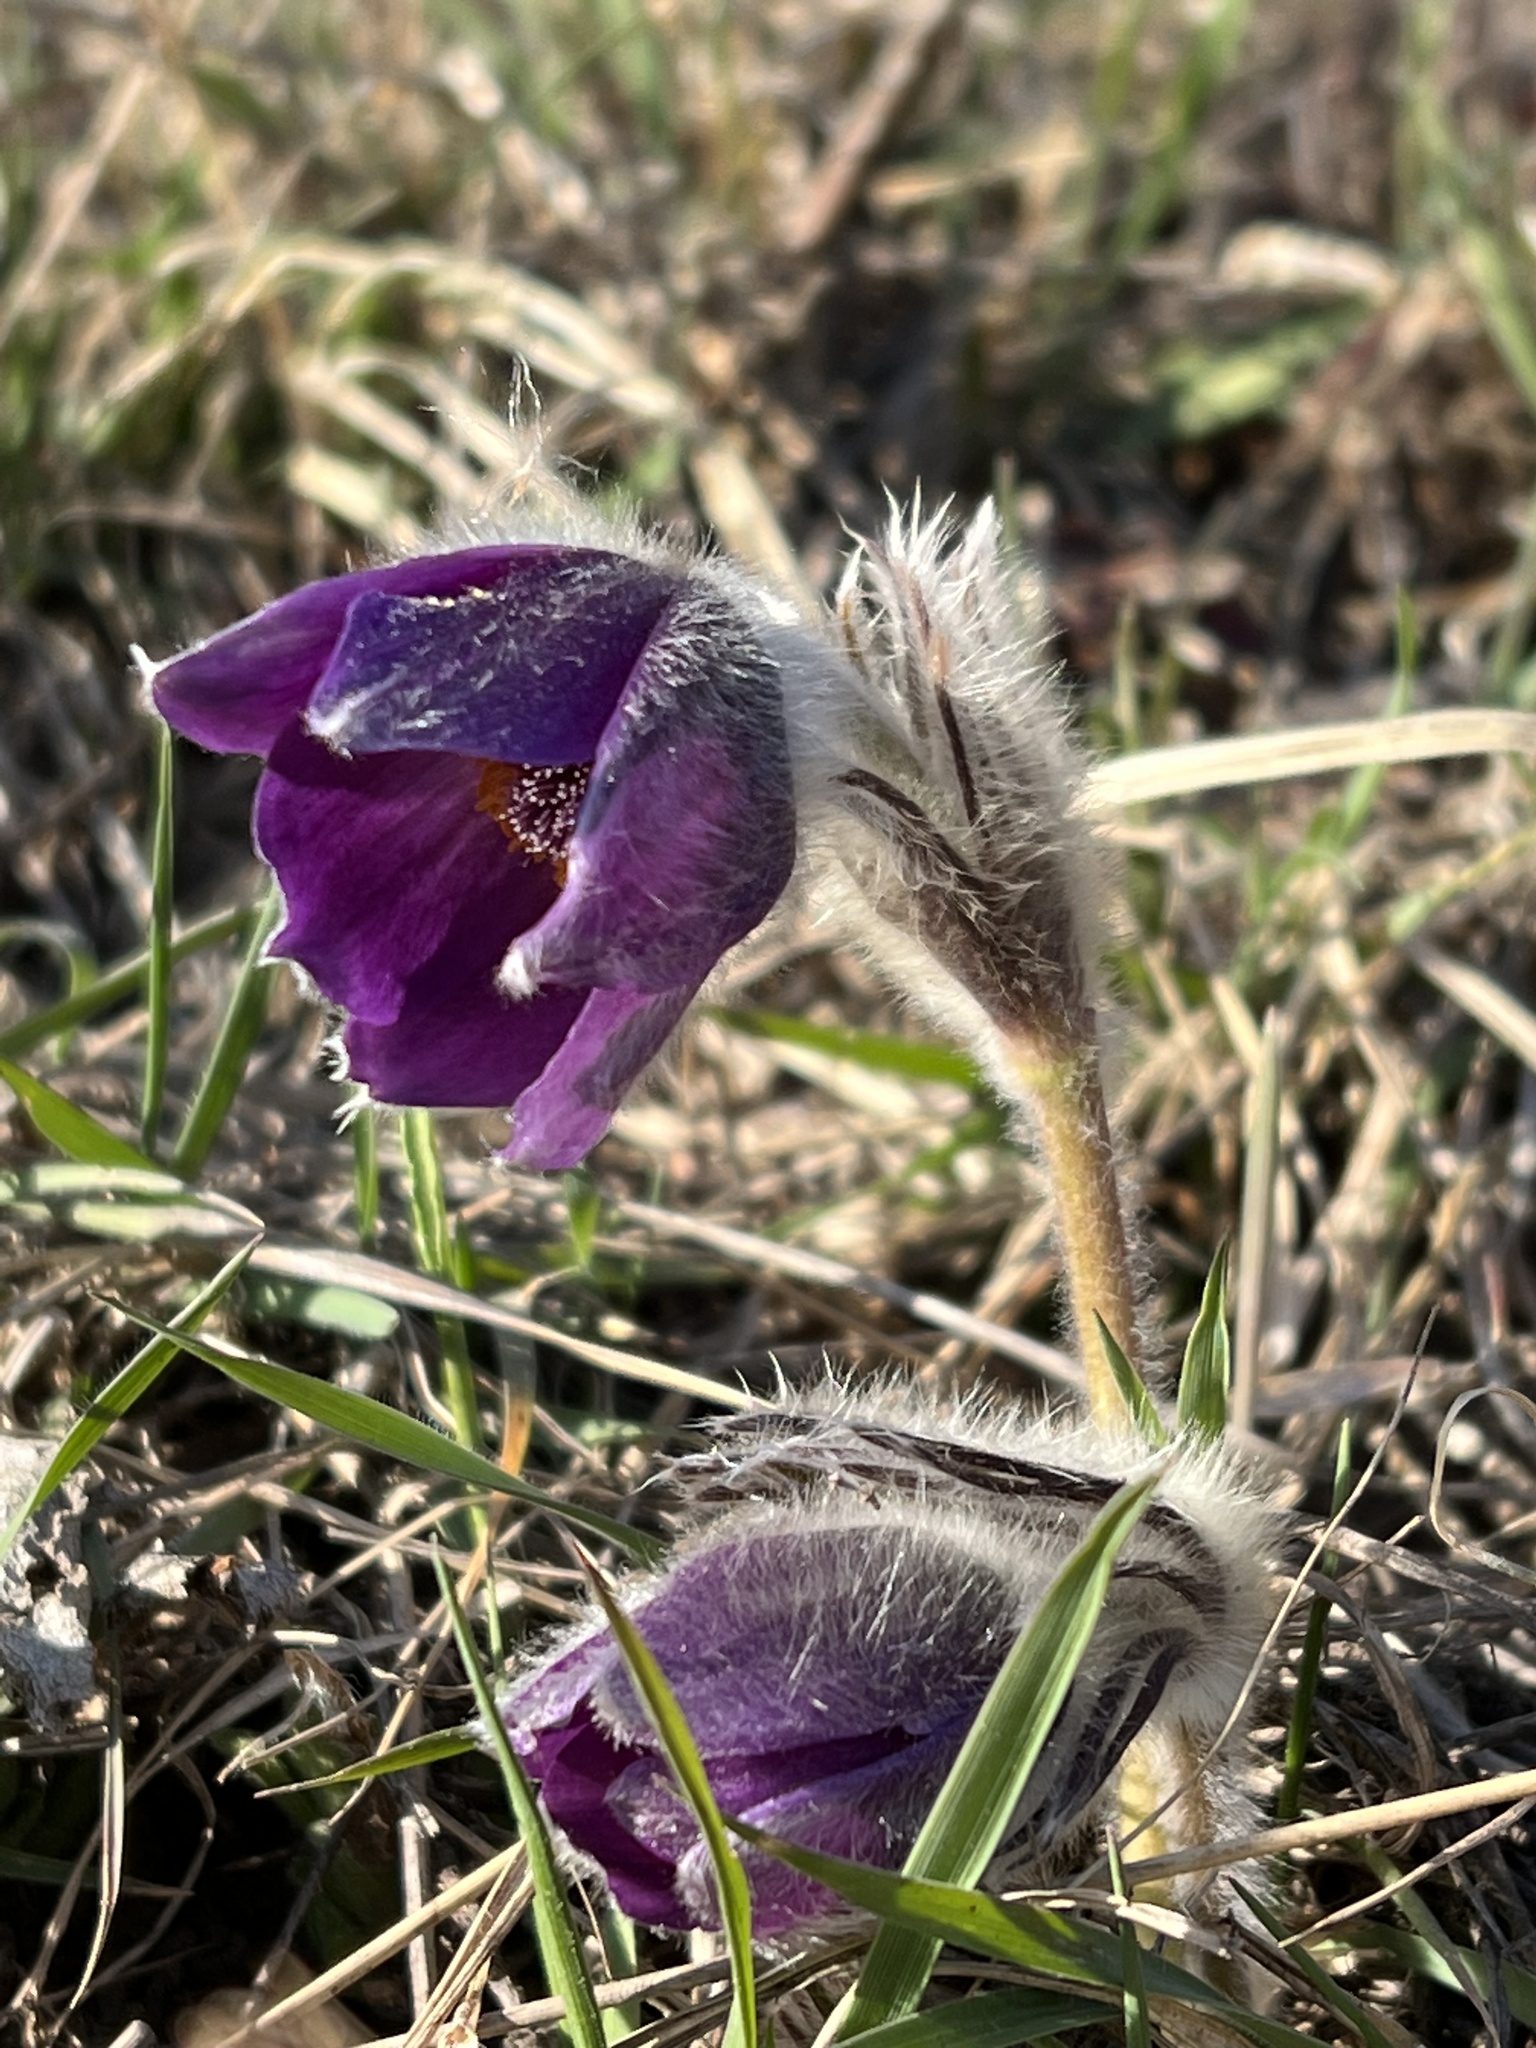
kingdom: Plantae
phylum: Tracheophyta
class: Magnoliopsida
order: Ranunculales
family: Ranunculaceae
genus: Pulsatilla
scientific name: Pulsatilla montana
